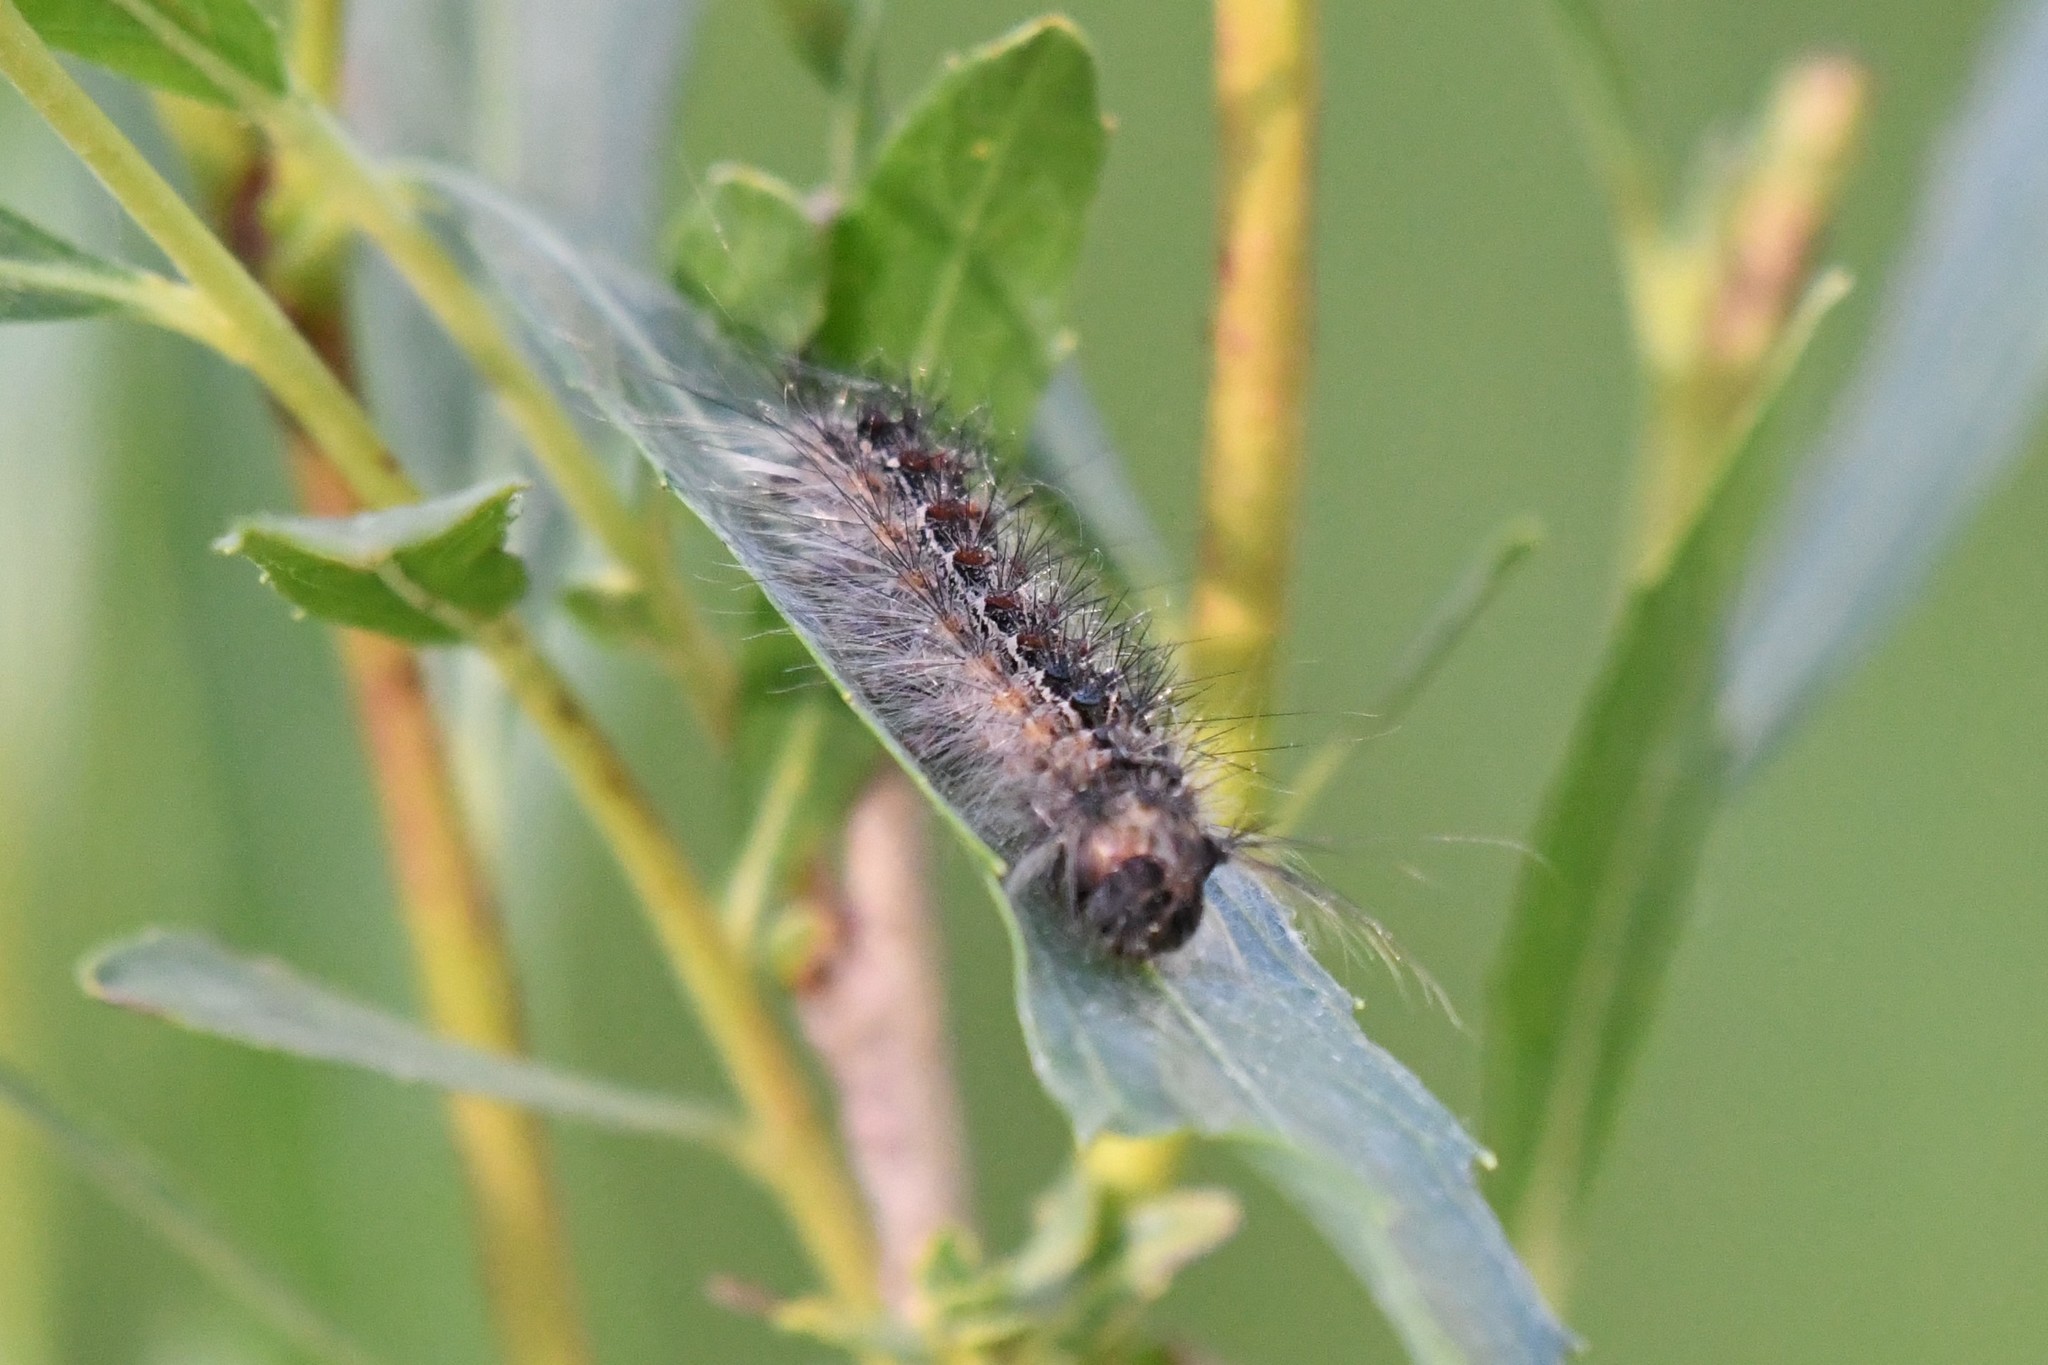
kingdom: Animalia
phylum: Arthropoda
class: Insecta
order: Lepidoptera
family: Erebidae
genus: Lymantria
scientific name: Lymantria dispar
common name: Gypsy moth
